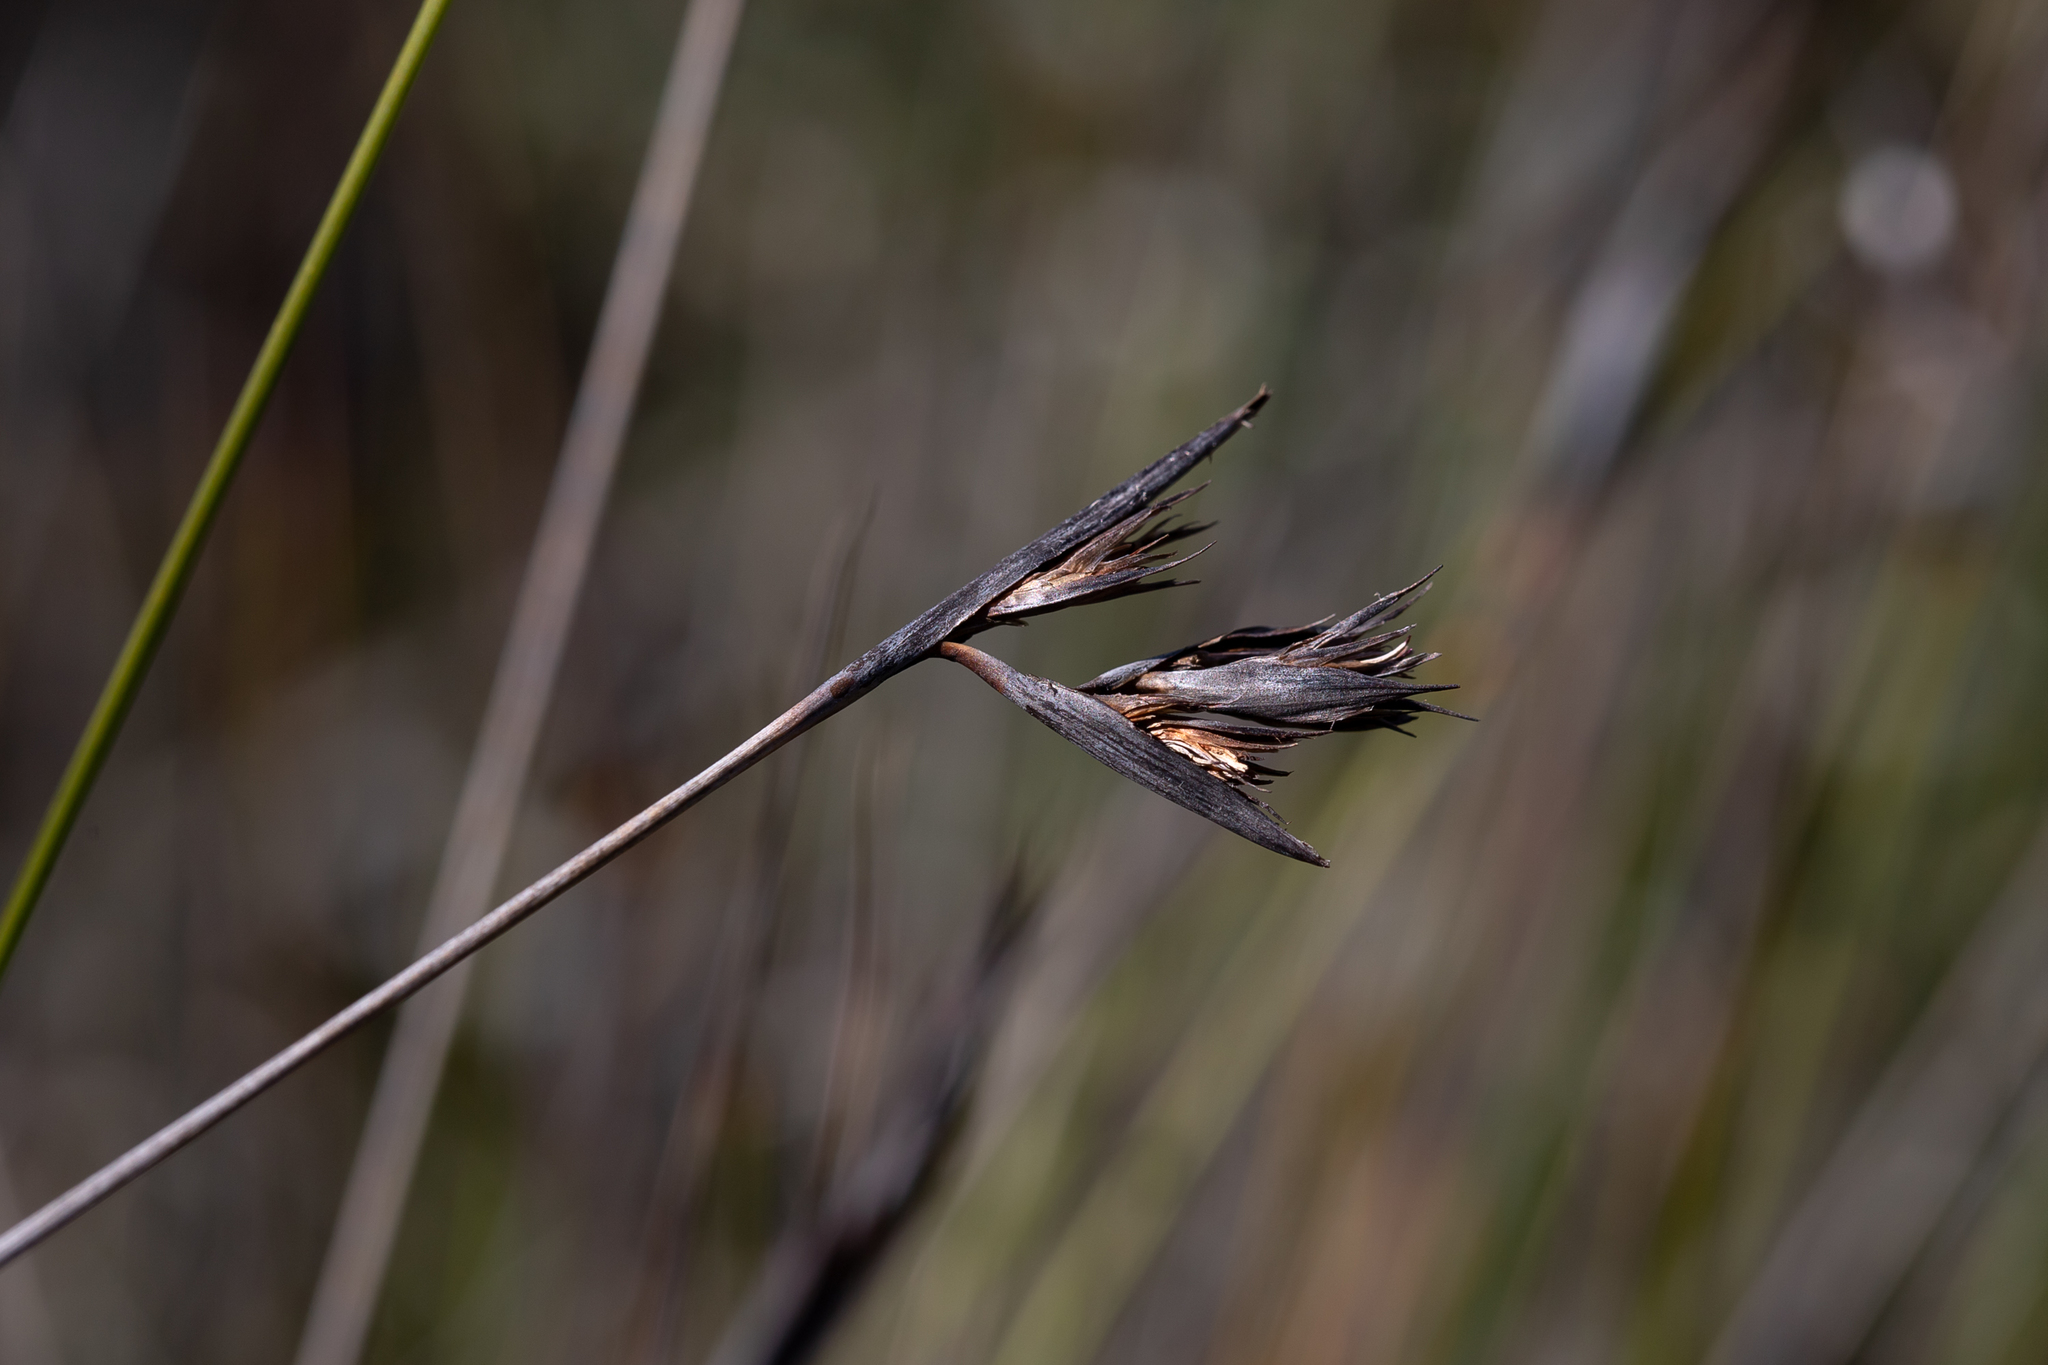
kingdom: Plantae
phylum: Tracheophyta
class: Liliopsida
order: Poales
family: Cyperaceae
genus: Lepidosperma
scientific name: Lepidosperma carphoides
